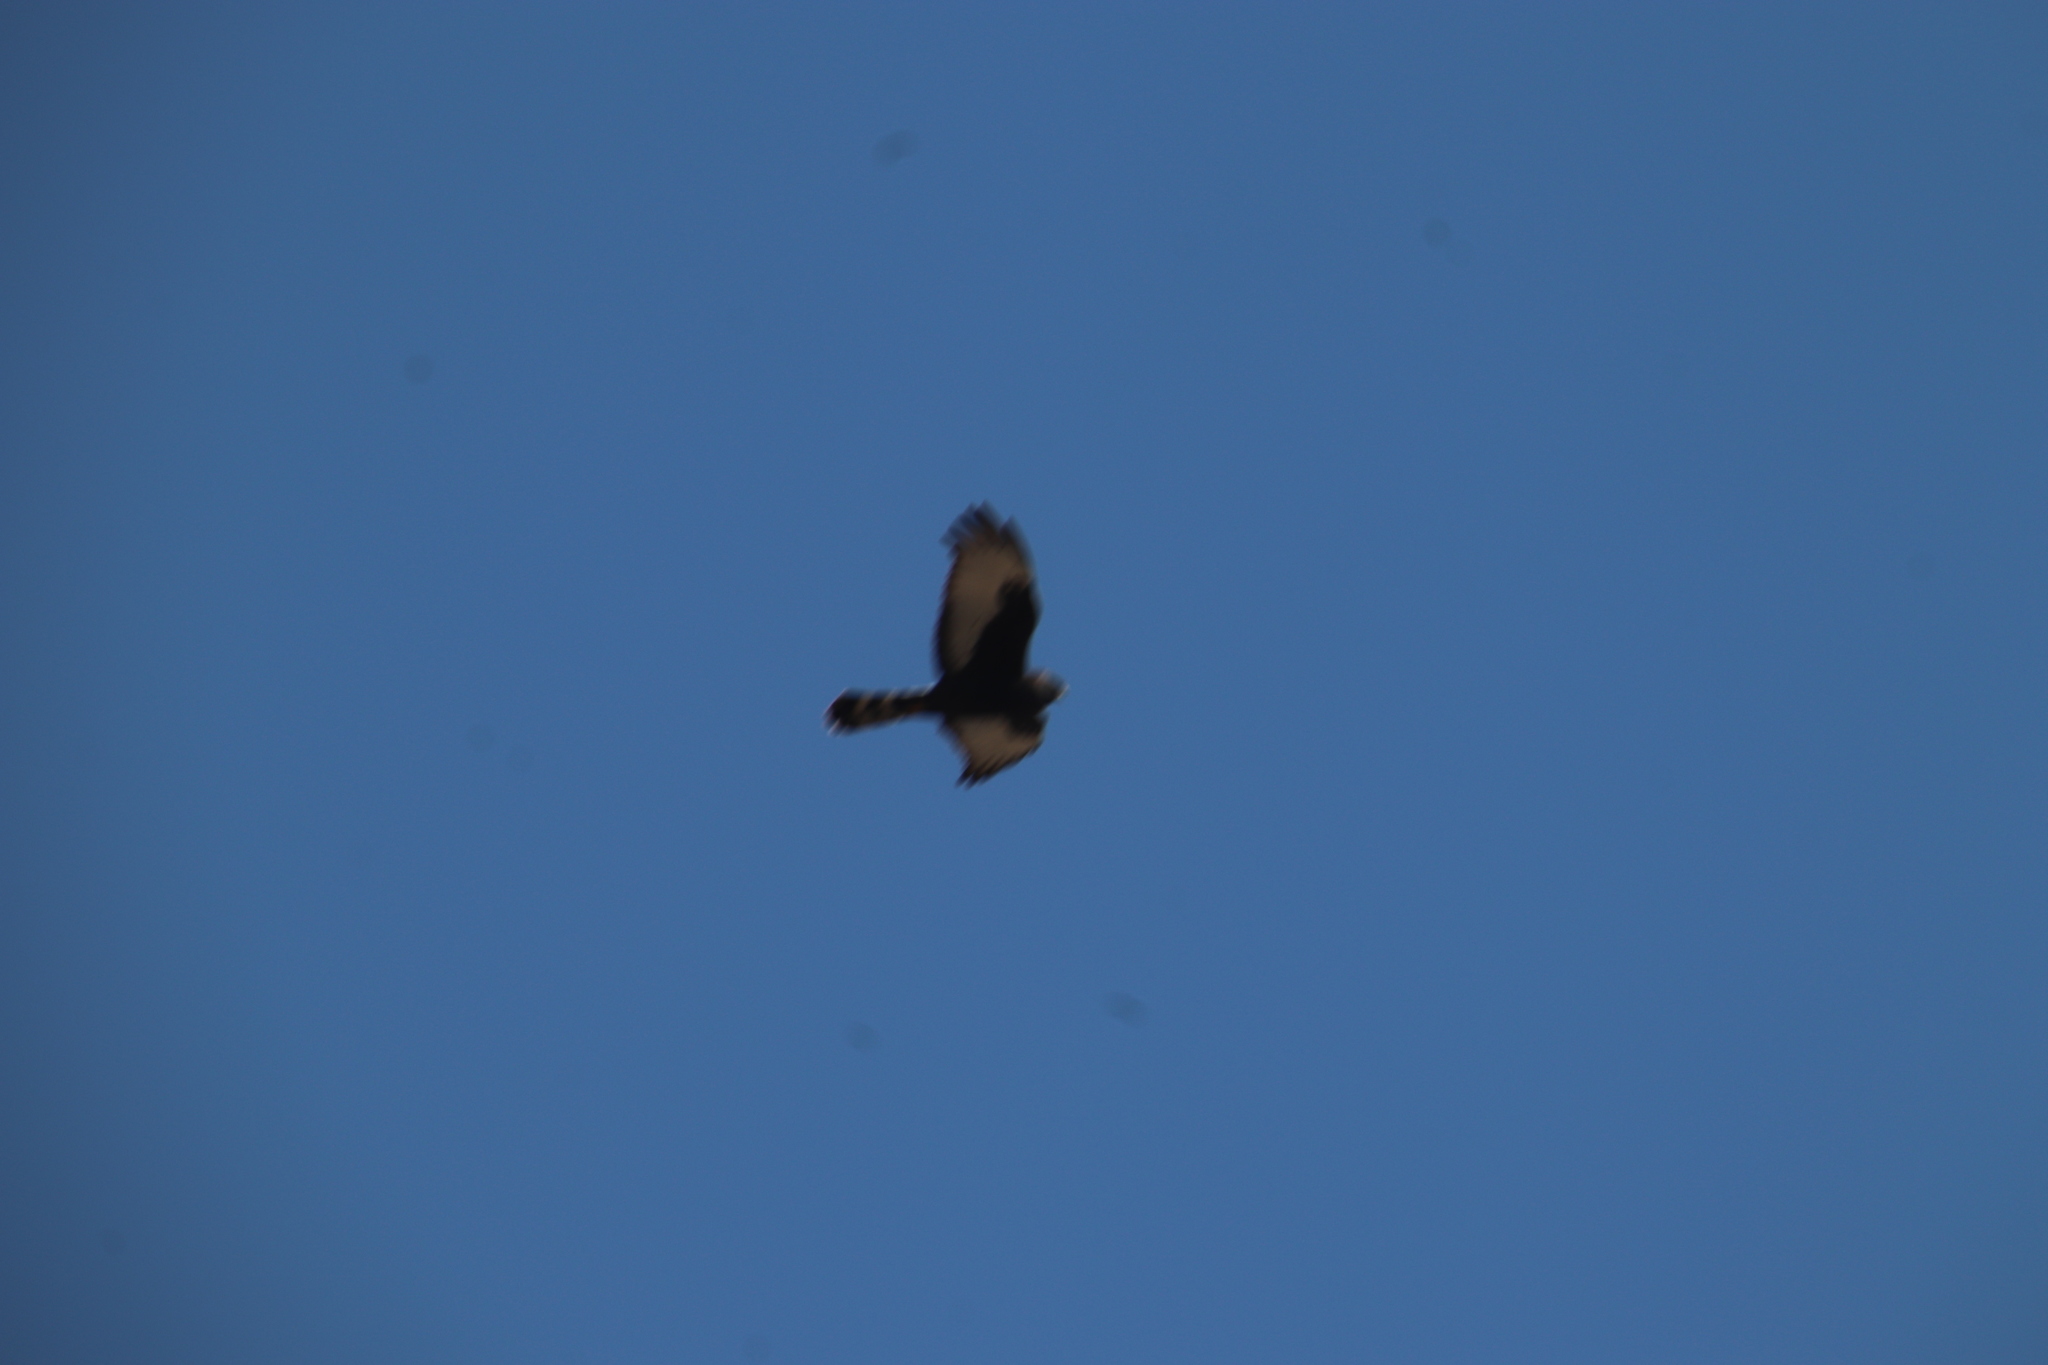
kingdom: Animalia
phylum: Chordata
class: Aves
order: Accipitriformes
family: Accipitridae
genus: Circus
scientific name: Circus maurus
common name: Black harrier
